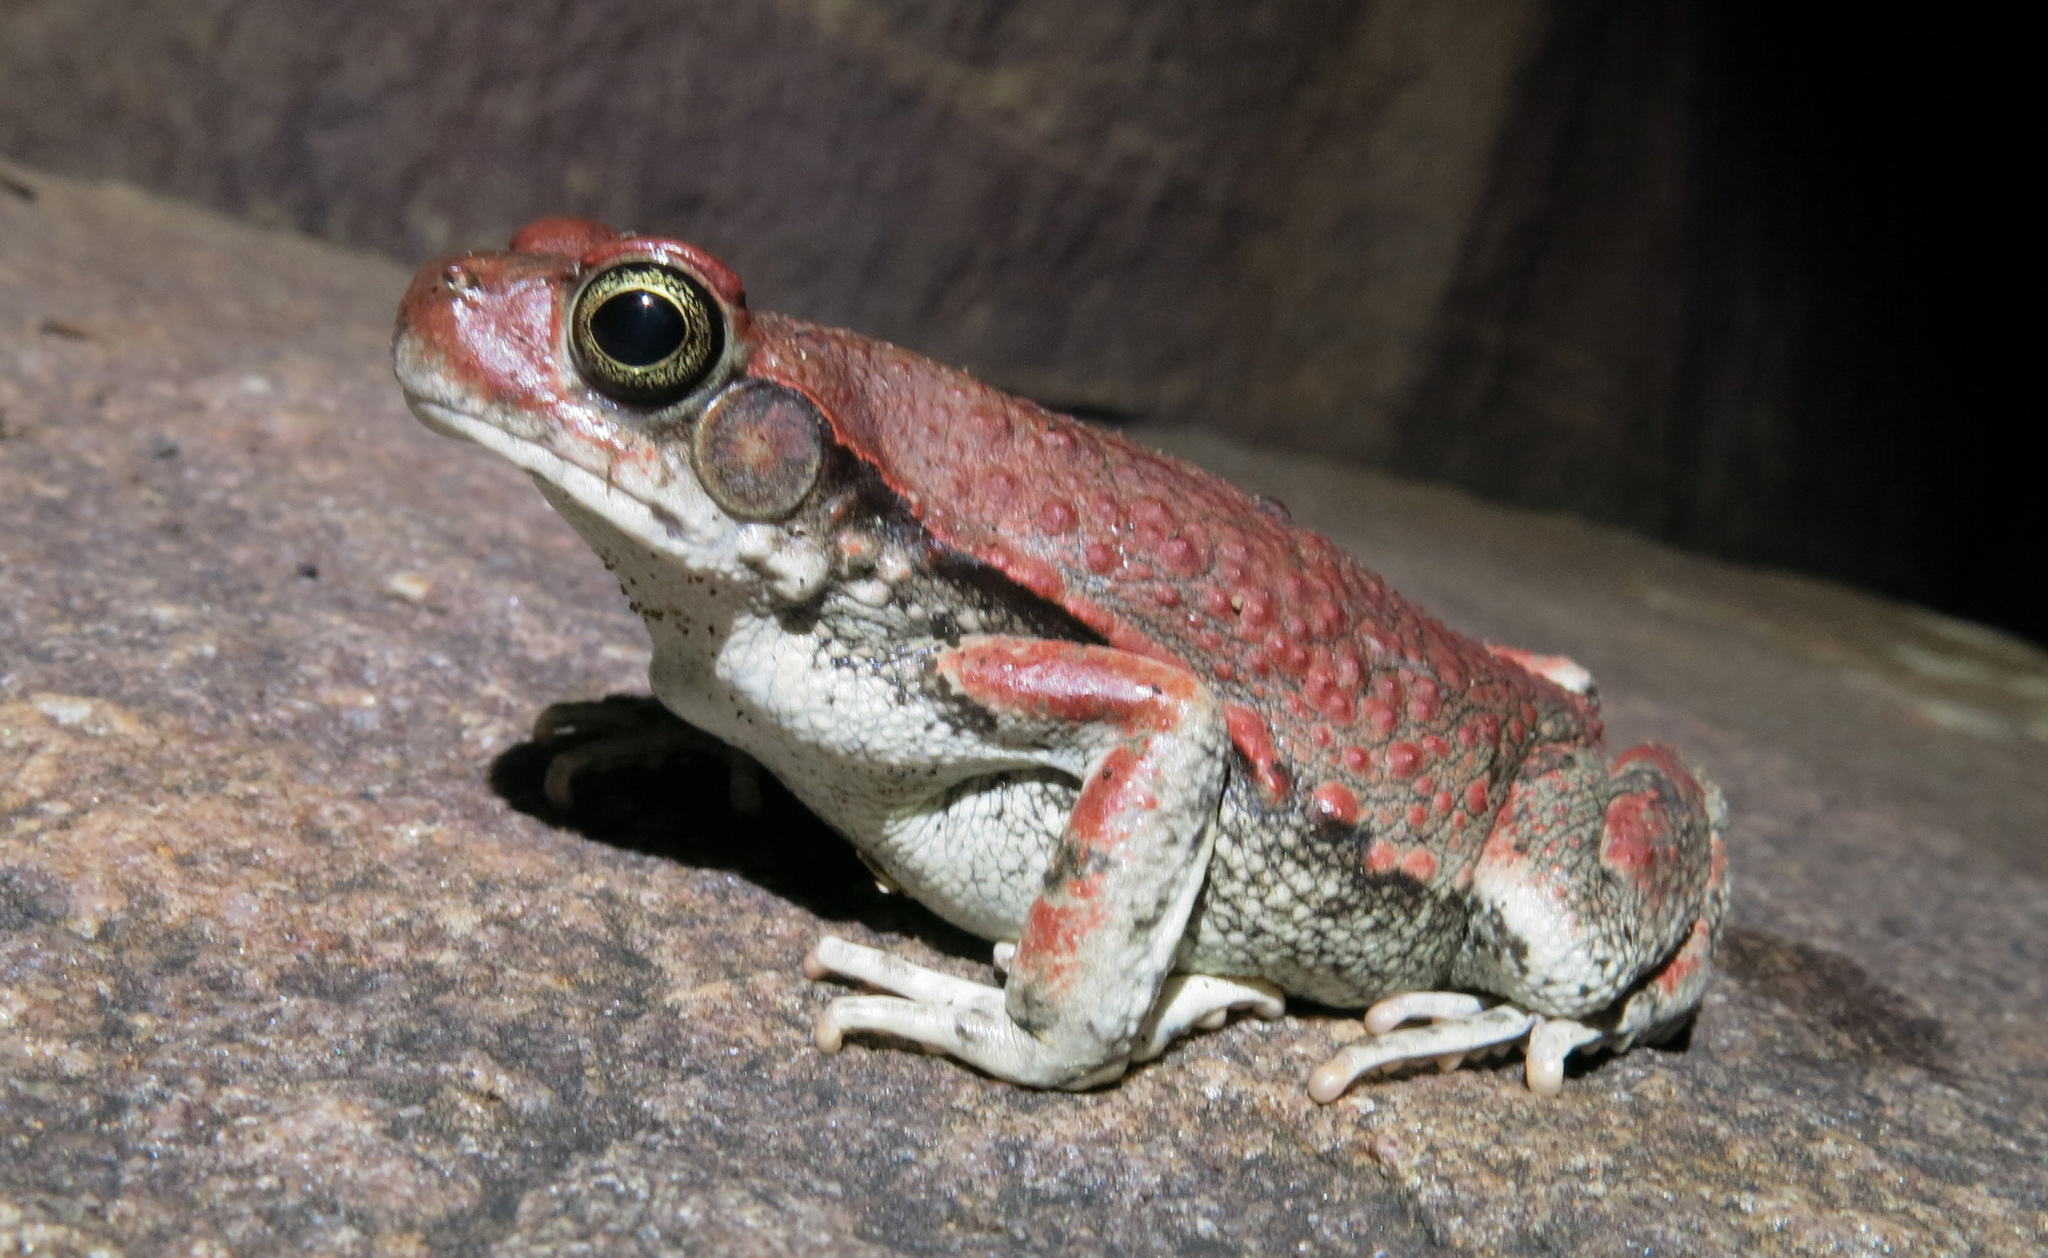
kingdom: Animalia
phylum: Chordata
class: Amphibia
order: Anura
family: Bufonidae
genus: Schismaderma
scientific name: Schismaderma carens
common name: African split-skin toad
